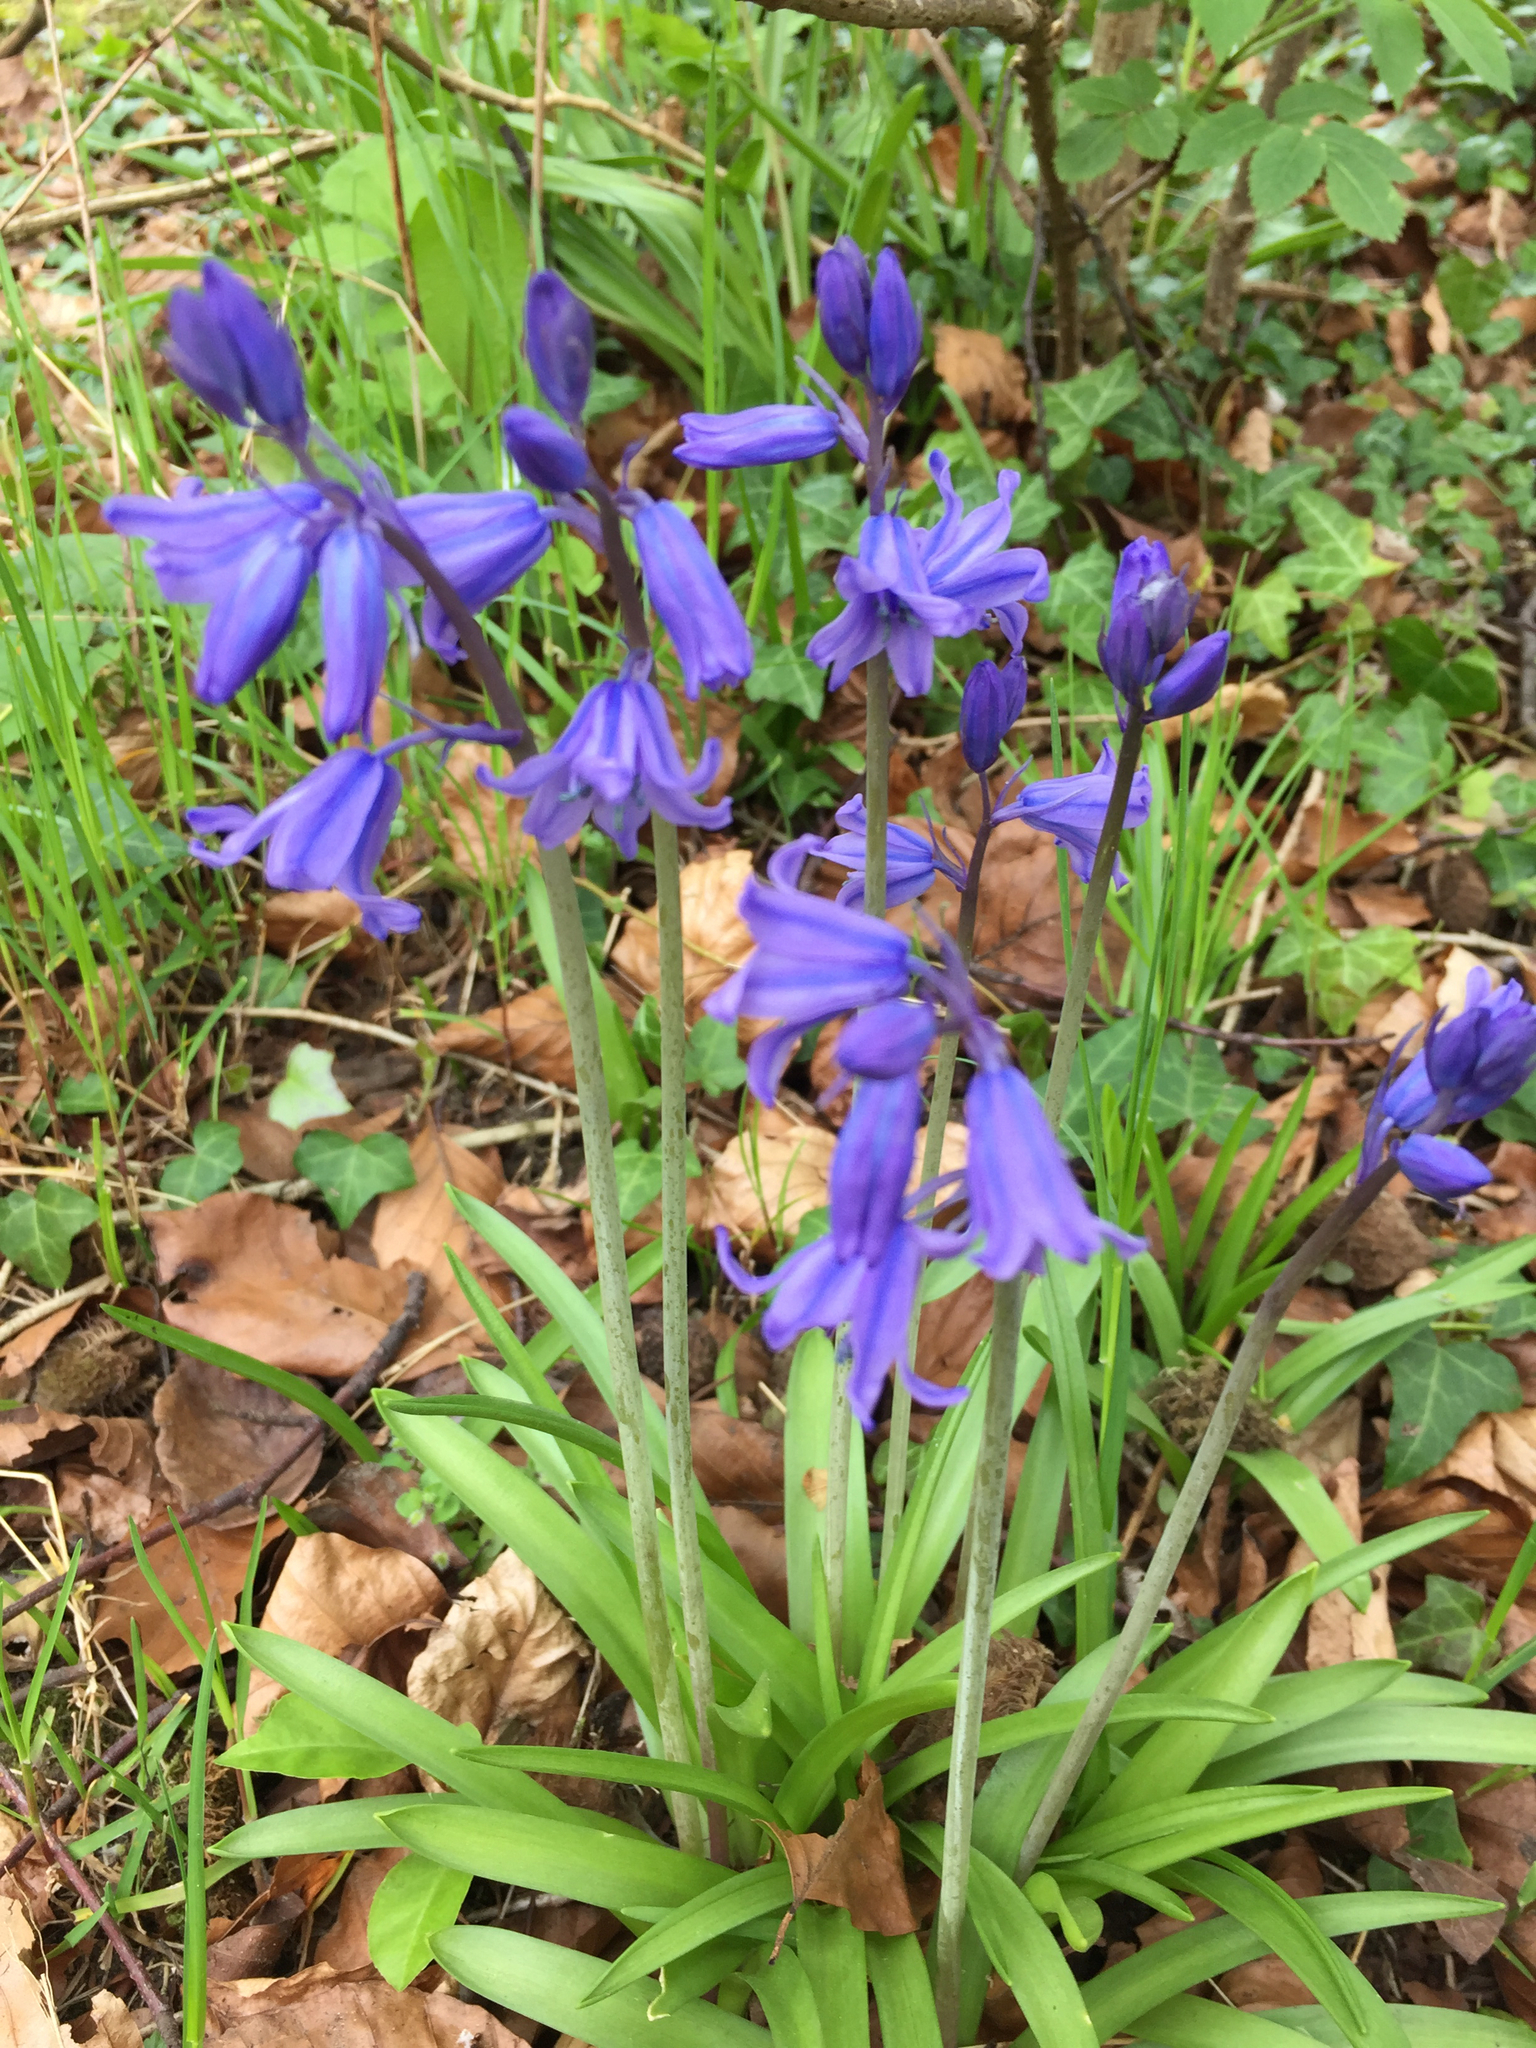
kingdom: Plantae
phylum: Tracheophyta
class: Liliopsida
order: Asparagales
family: Asparagaceae
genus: Hyacinthoides
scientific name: Hyacinthoides massartiana
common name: Hyacinthoides
